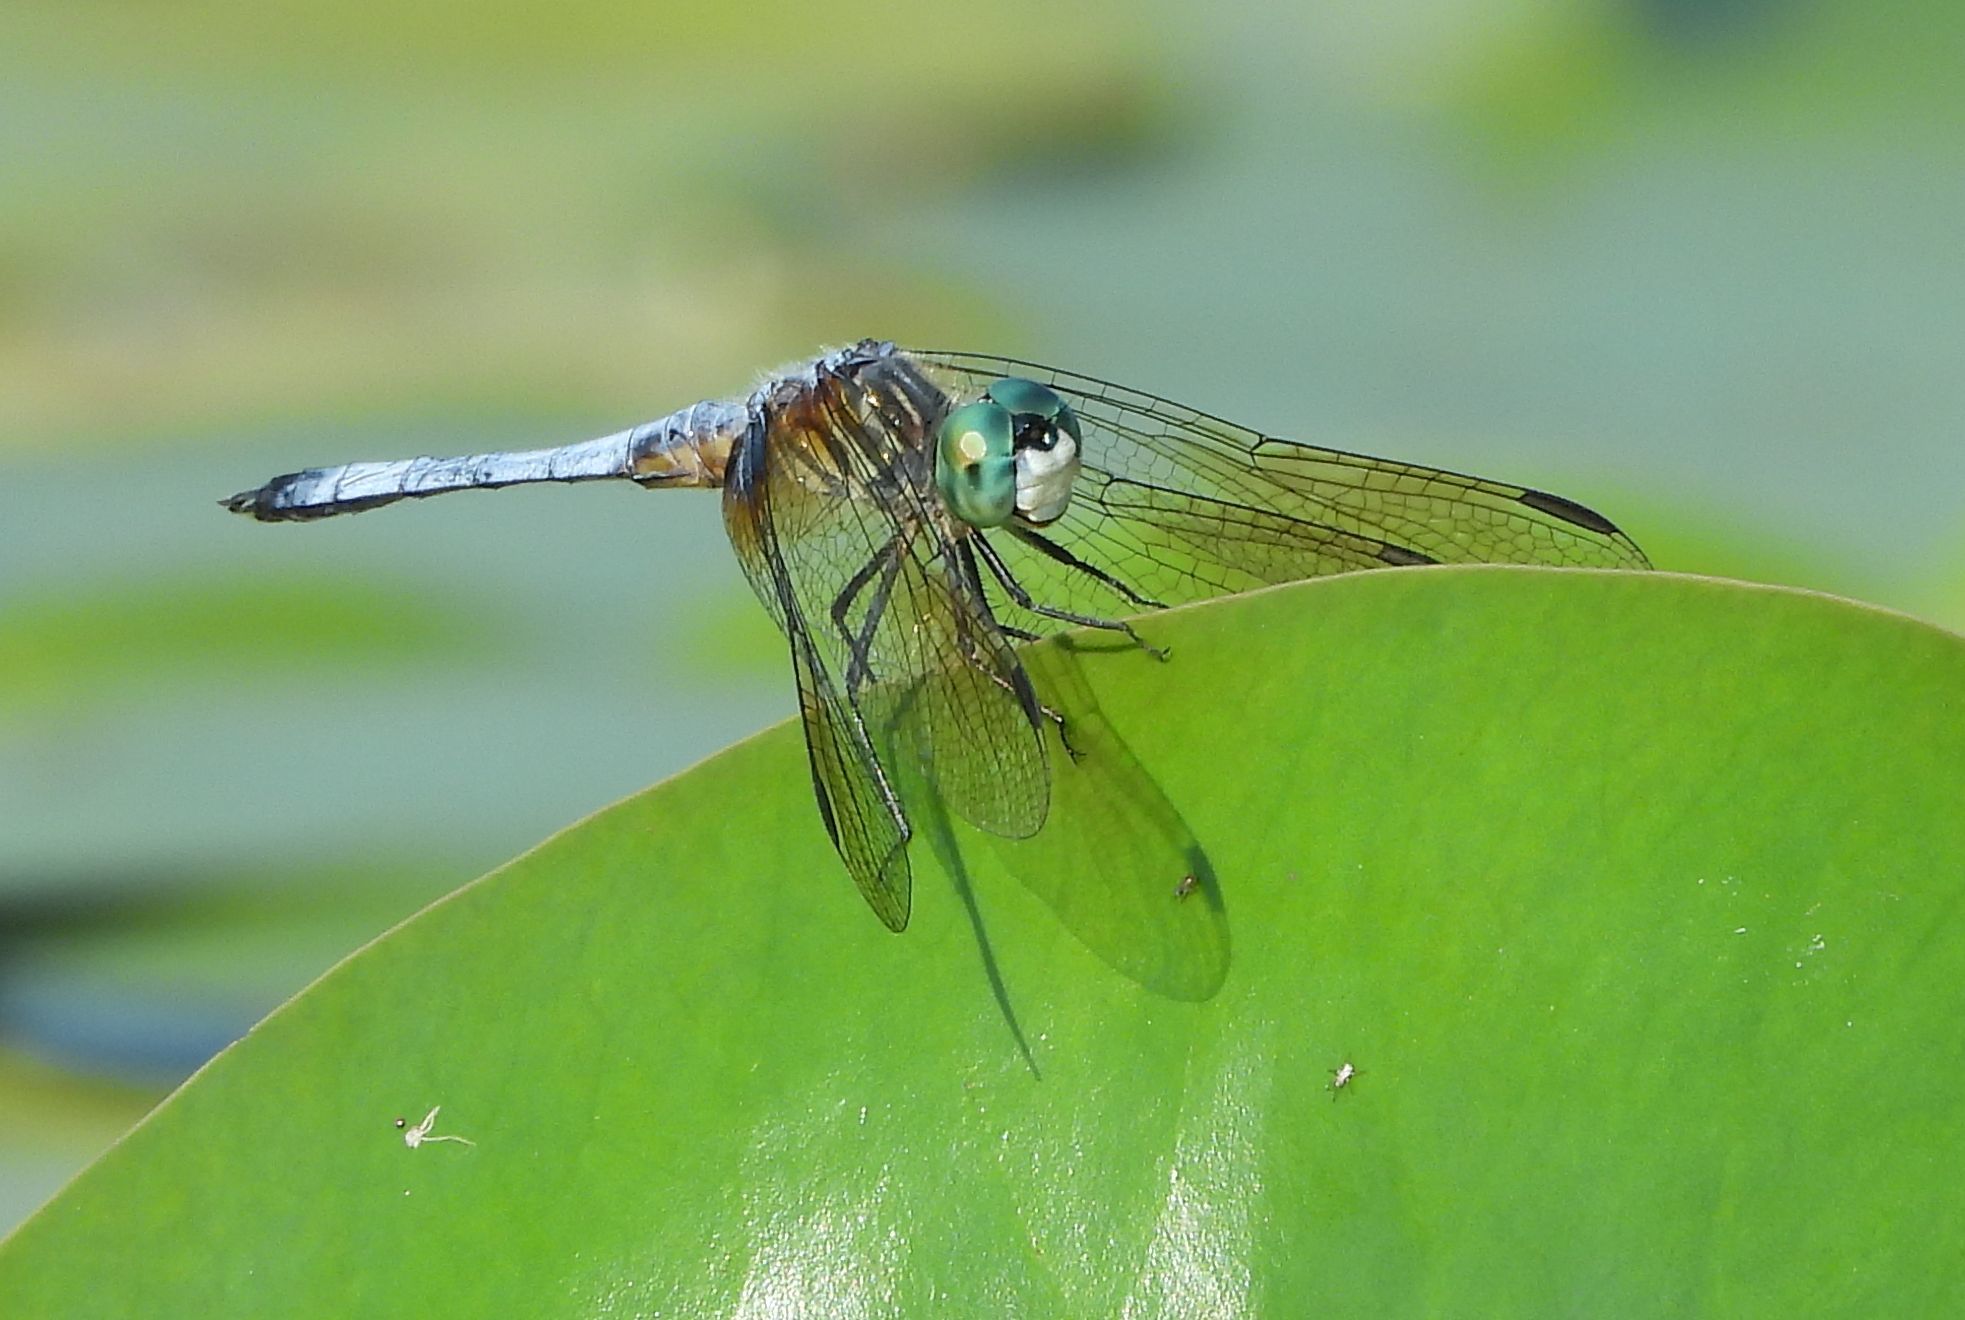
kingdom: Animalia
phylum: Arthropoda
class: Insecta
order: Odonata
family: Libellulidae
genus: Pachydiplax
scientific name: Pachydiplax longipennis
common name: Blue dasher
